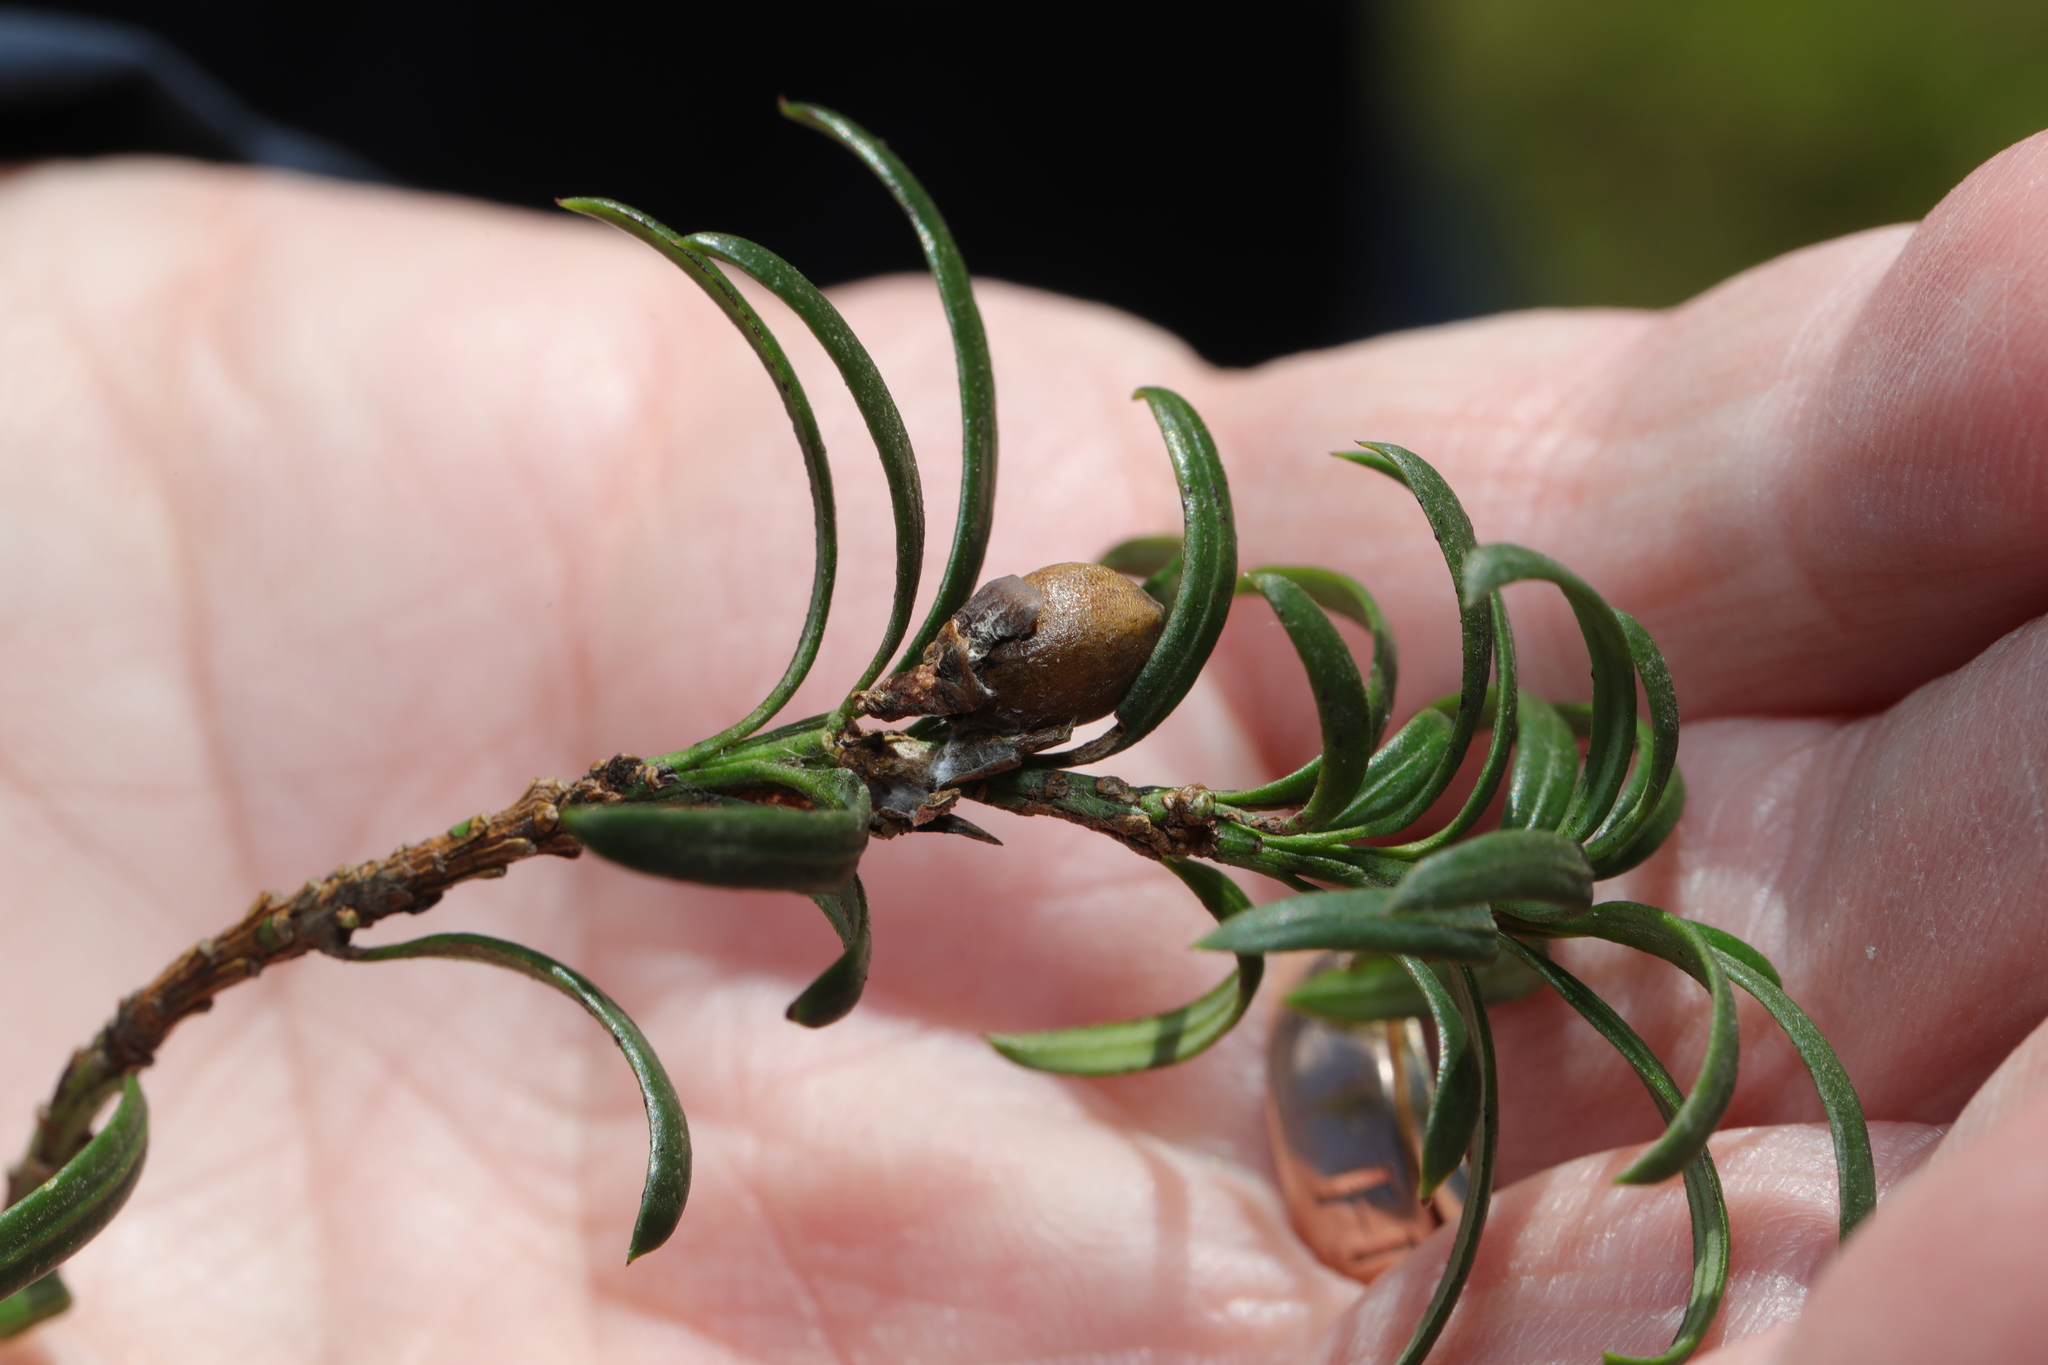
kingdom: Plantae
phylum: Tracheophyta
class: Pinopsida
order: Pinales
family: Taxaceae
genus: Taxus
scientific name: Taxus baccata
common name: Yew
